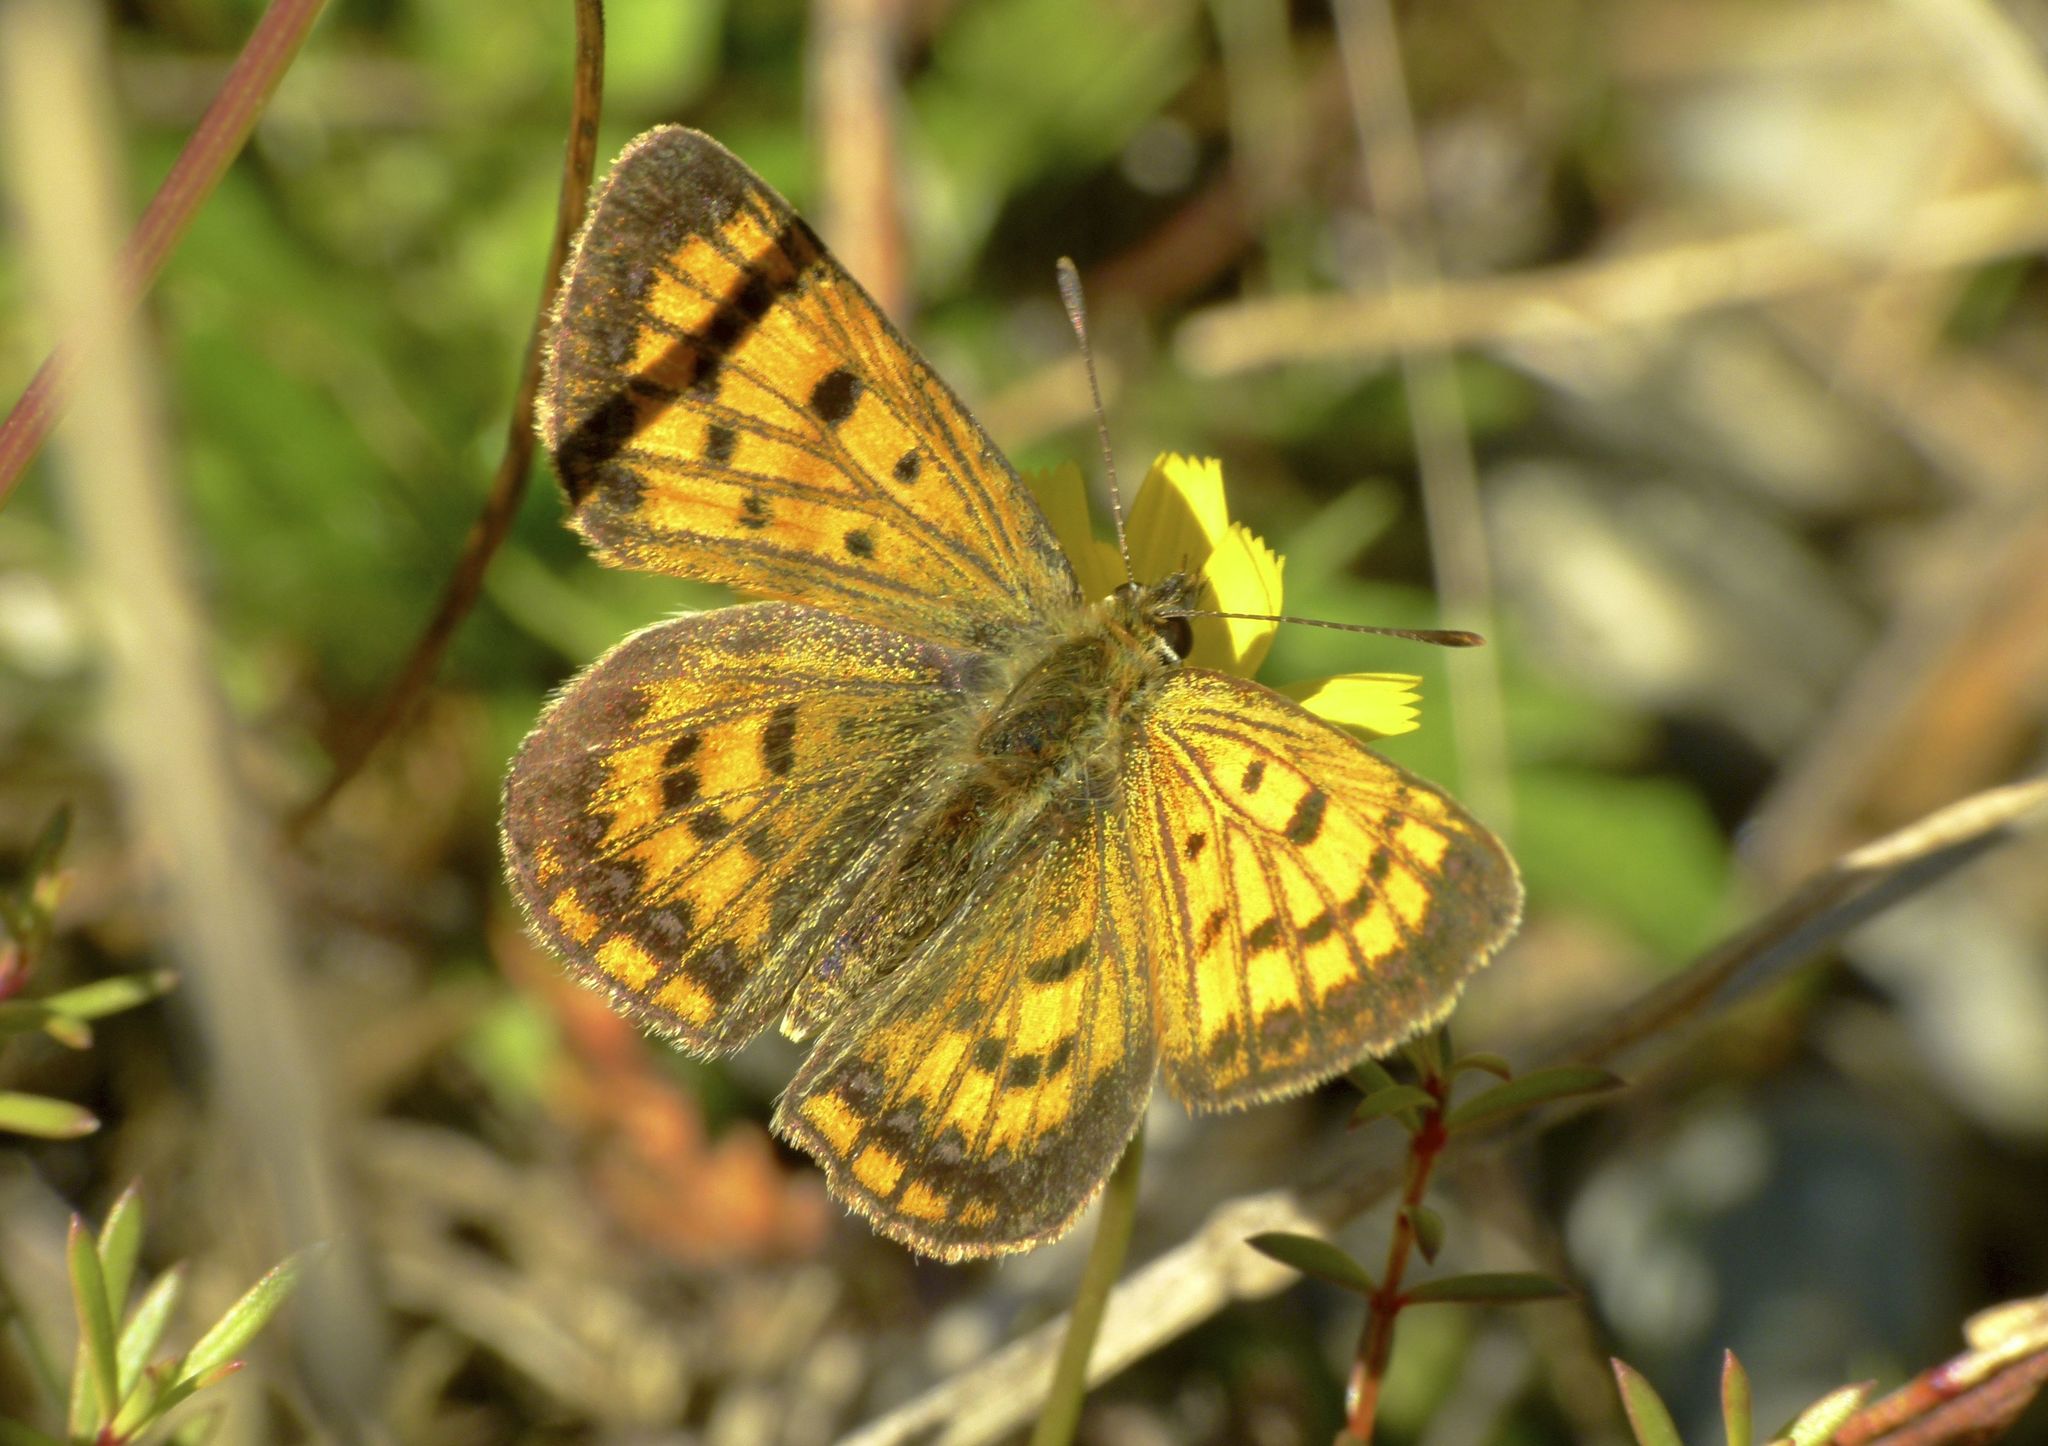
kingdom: Animalia
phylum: Arthropoda
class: Insecta
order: Lepidoptera
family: Lycaenidae
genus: Lycaena
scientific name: Lycaena salustius
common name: North island coastal copper
